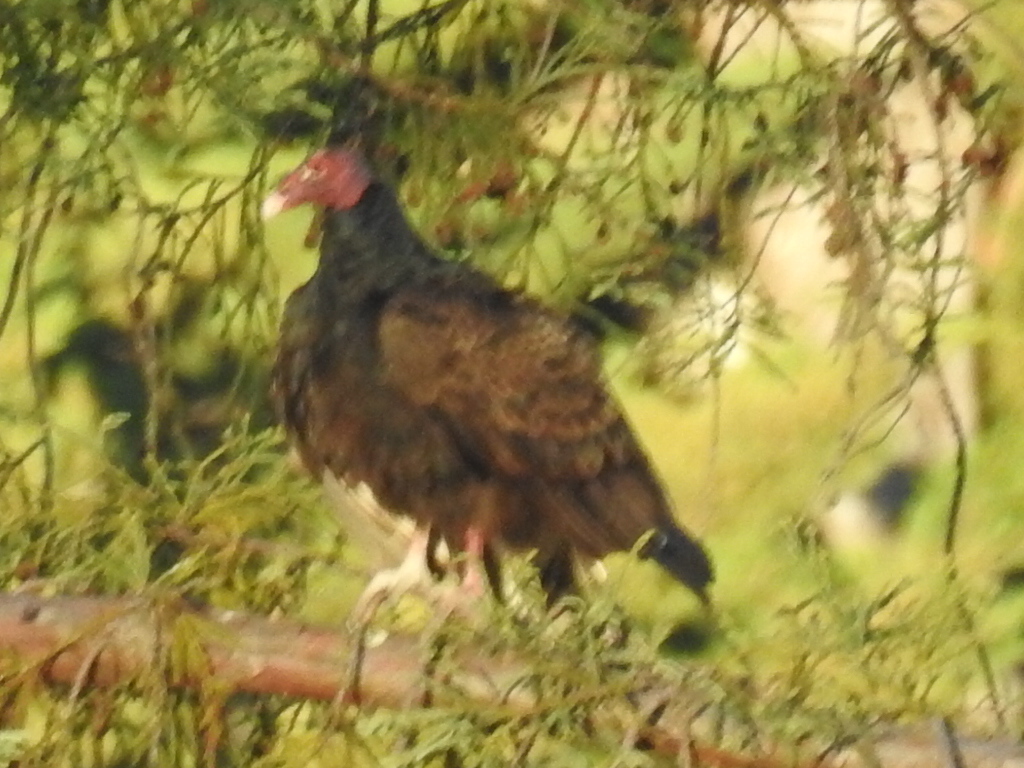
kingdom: Animalia
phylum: Chordata
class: Aves
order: Accipitriformes
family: Cathartidae
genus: Cathartes
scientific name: Cathartes aura
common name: Turkey vulture
